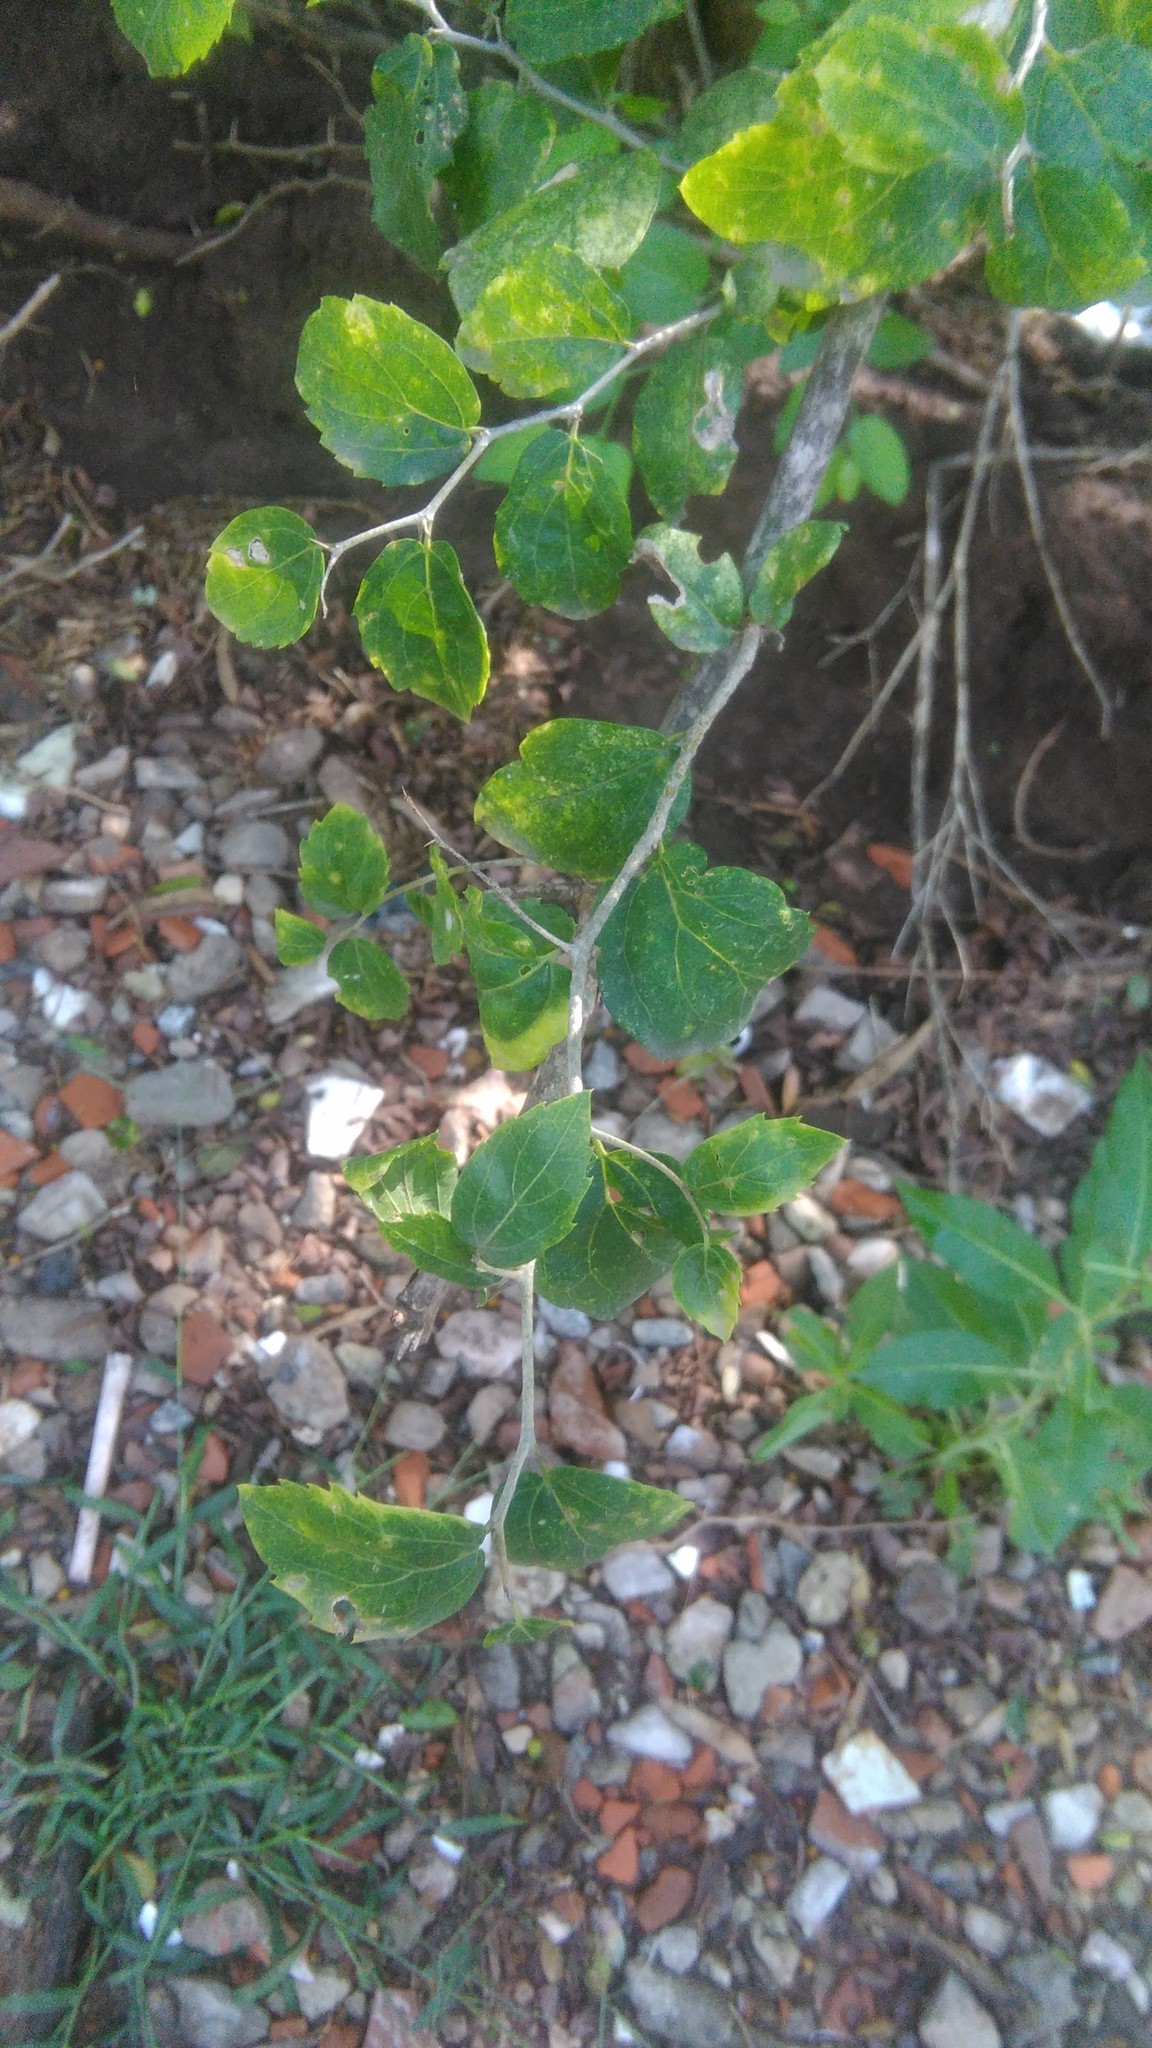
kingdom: Plantae
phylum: Tracheophyta
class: Magnoliopsida
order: Rosales
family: Cannabaceae
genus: Celtis
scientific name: Celtis tala
